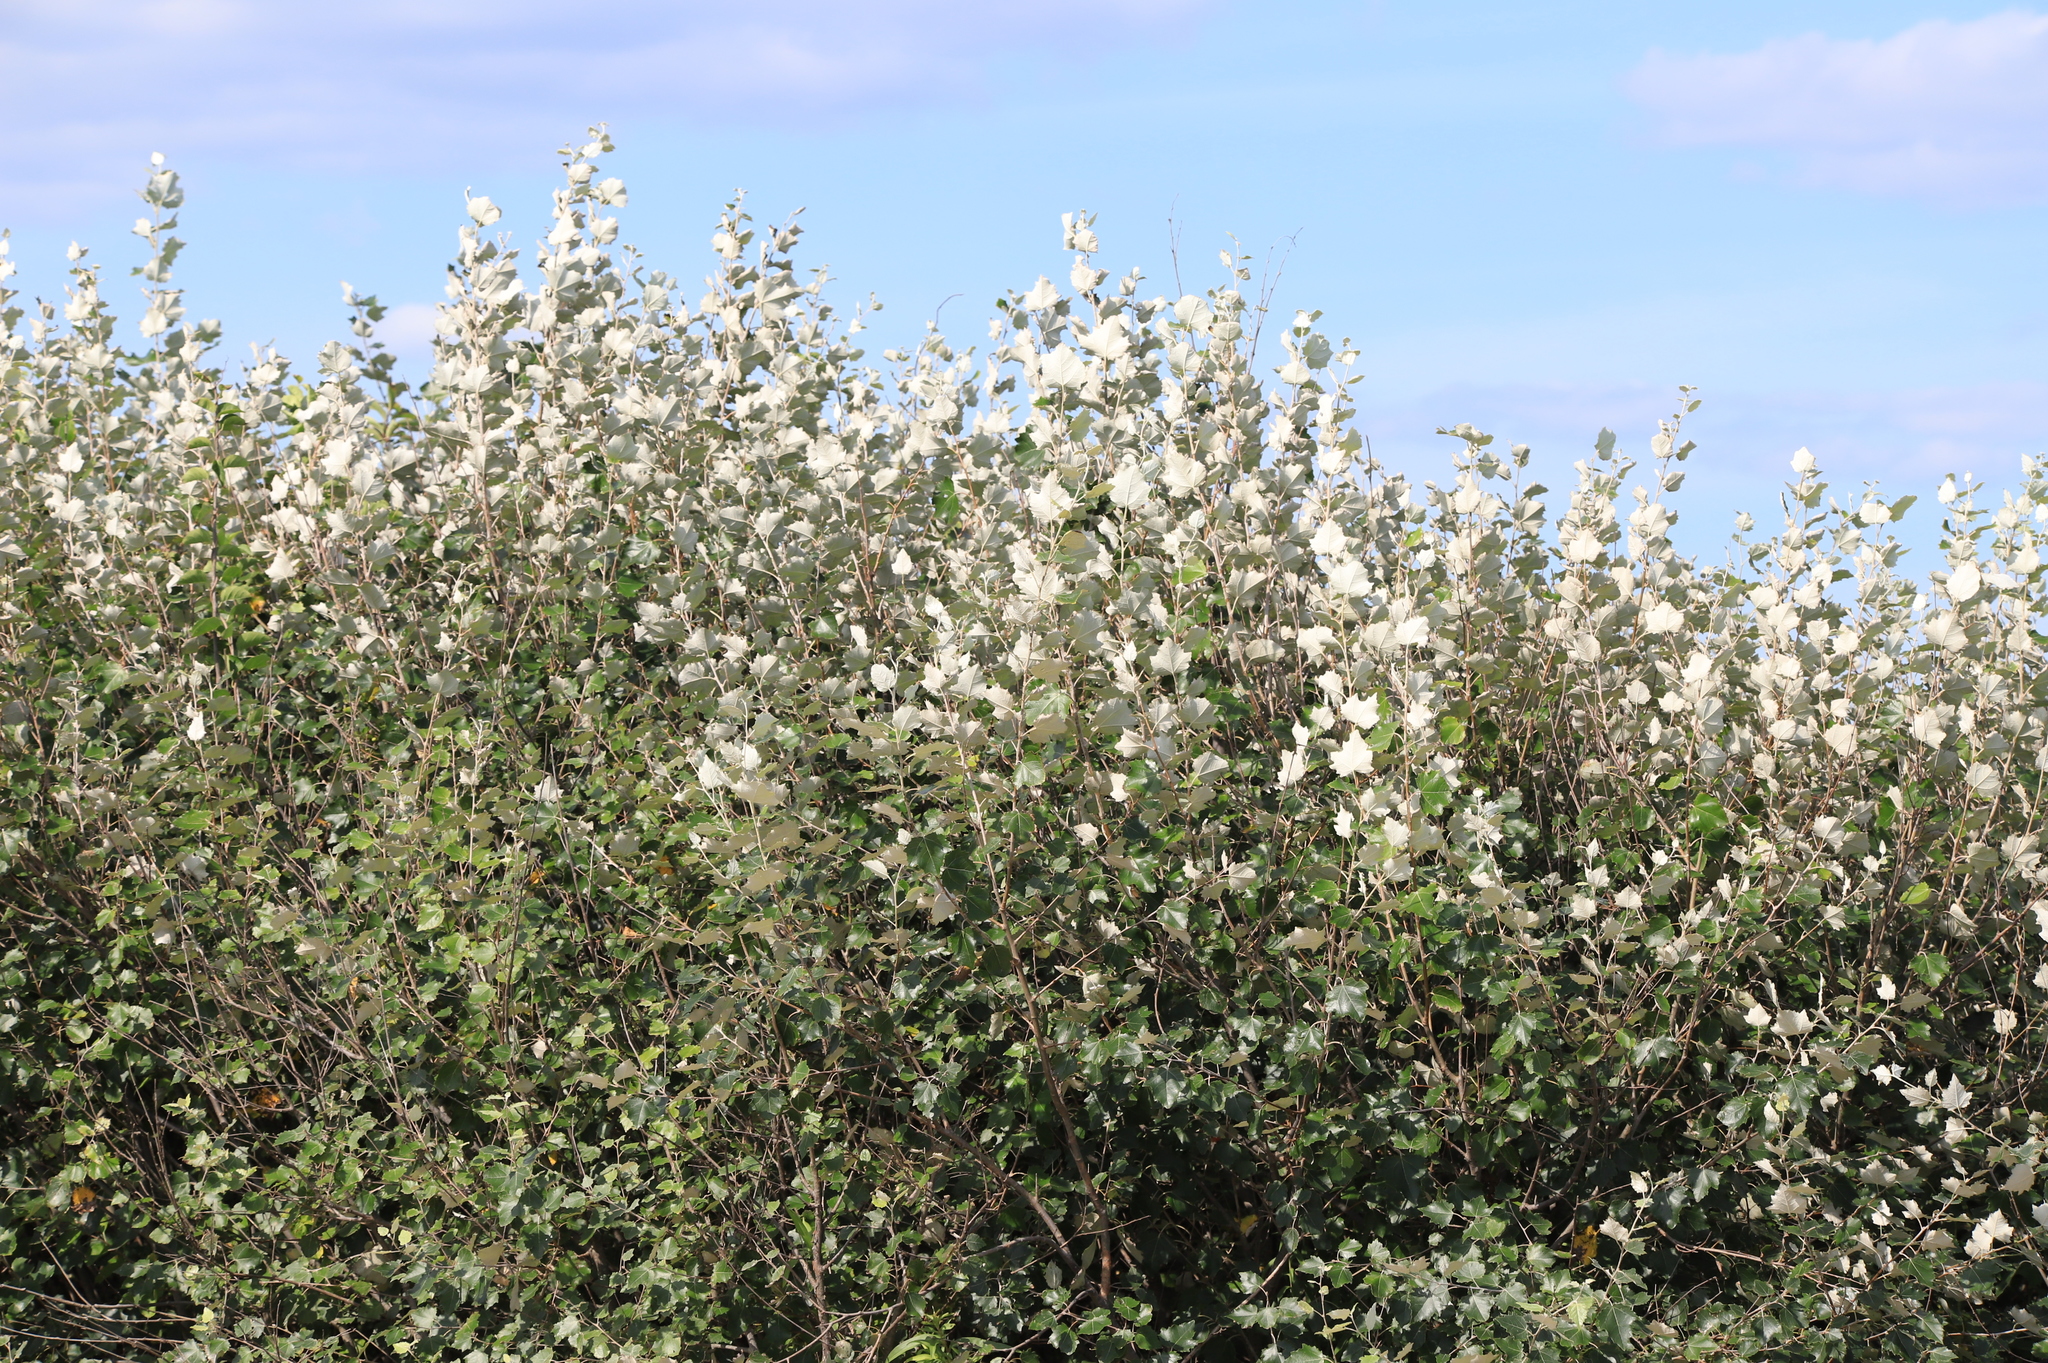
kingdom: Plantae
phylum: Tracheophyta
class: Magnoliopsida
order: Malpighiales
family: Salicaceae
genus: Populus
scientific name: Populus alba
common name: White poplar
